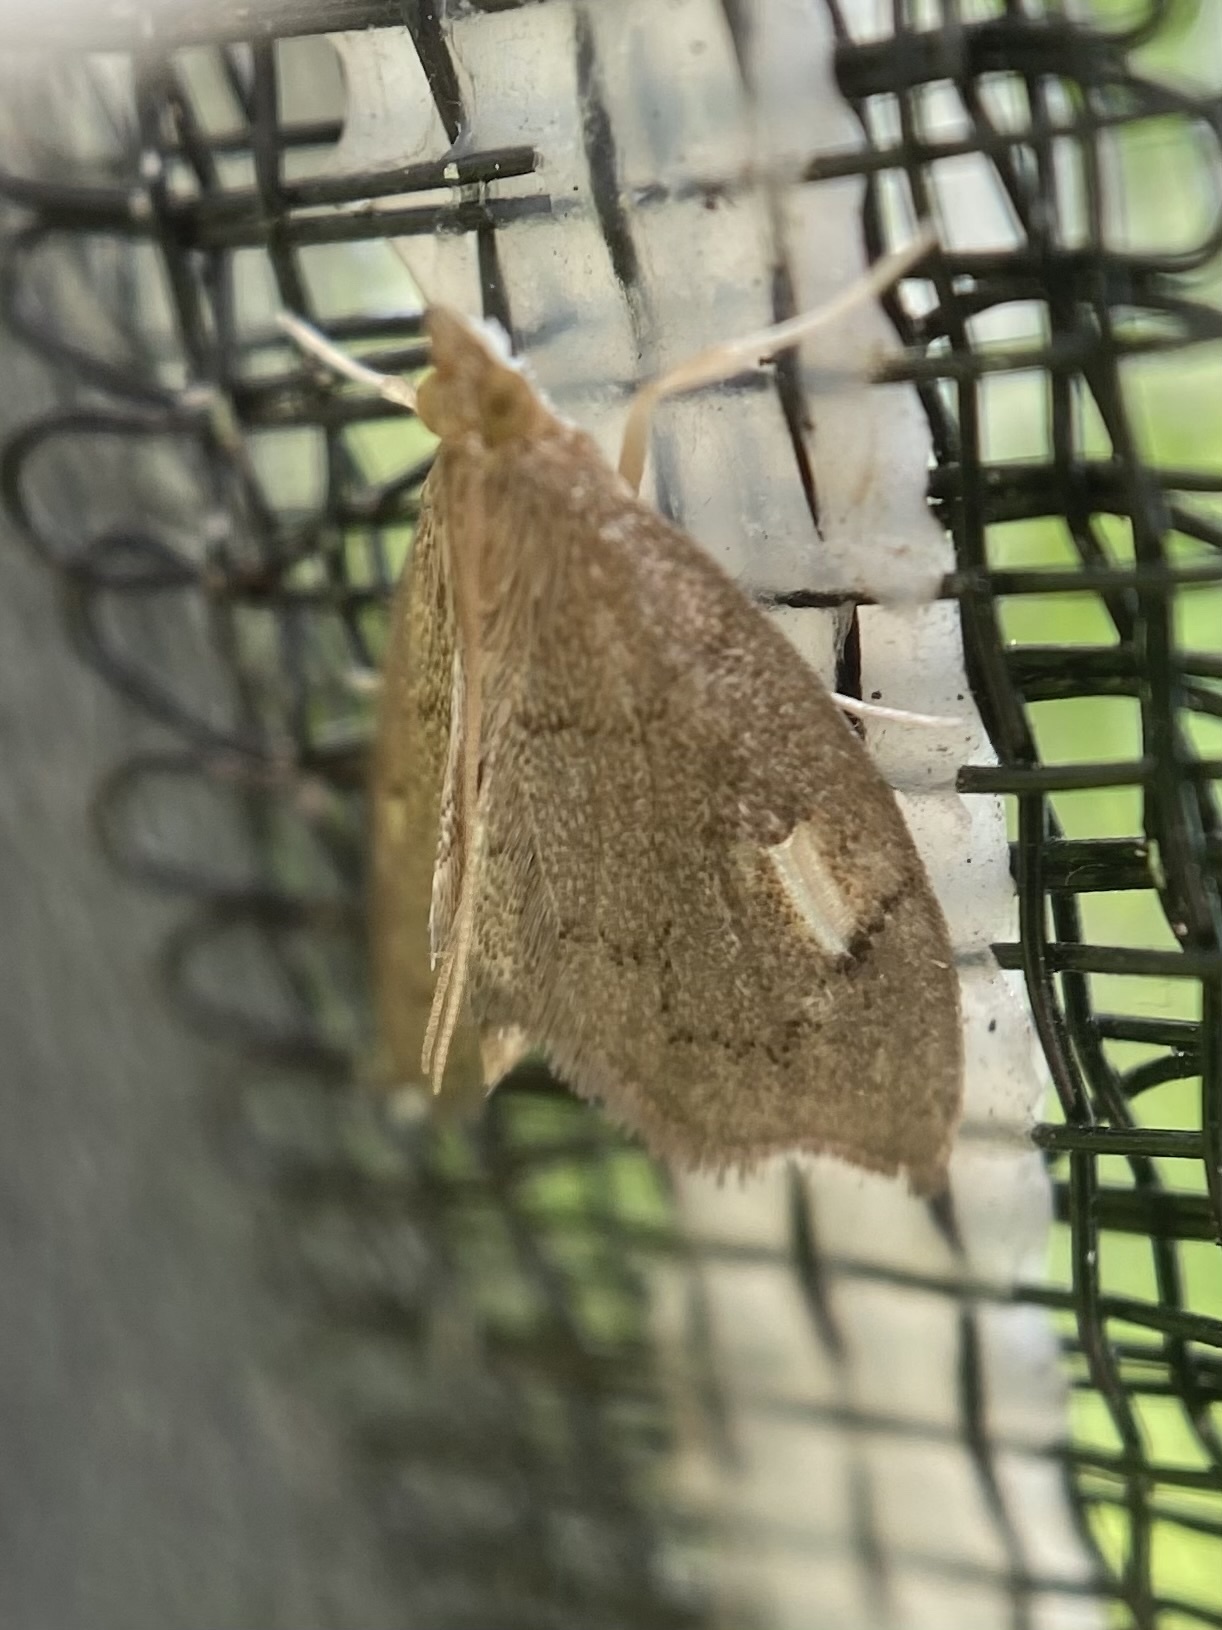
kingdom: Animalia
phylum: Arthropoda
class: Insecta
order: Lepidoptera
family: Crambidae
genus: Perispasta
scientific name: Perispasta caeculalis
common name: Titian peale's moth
